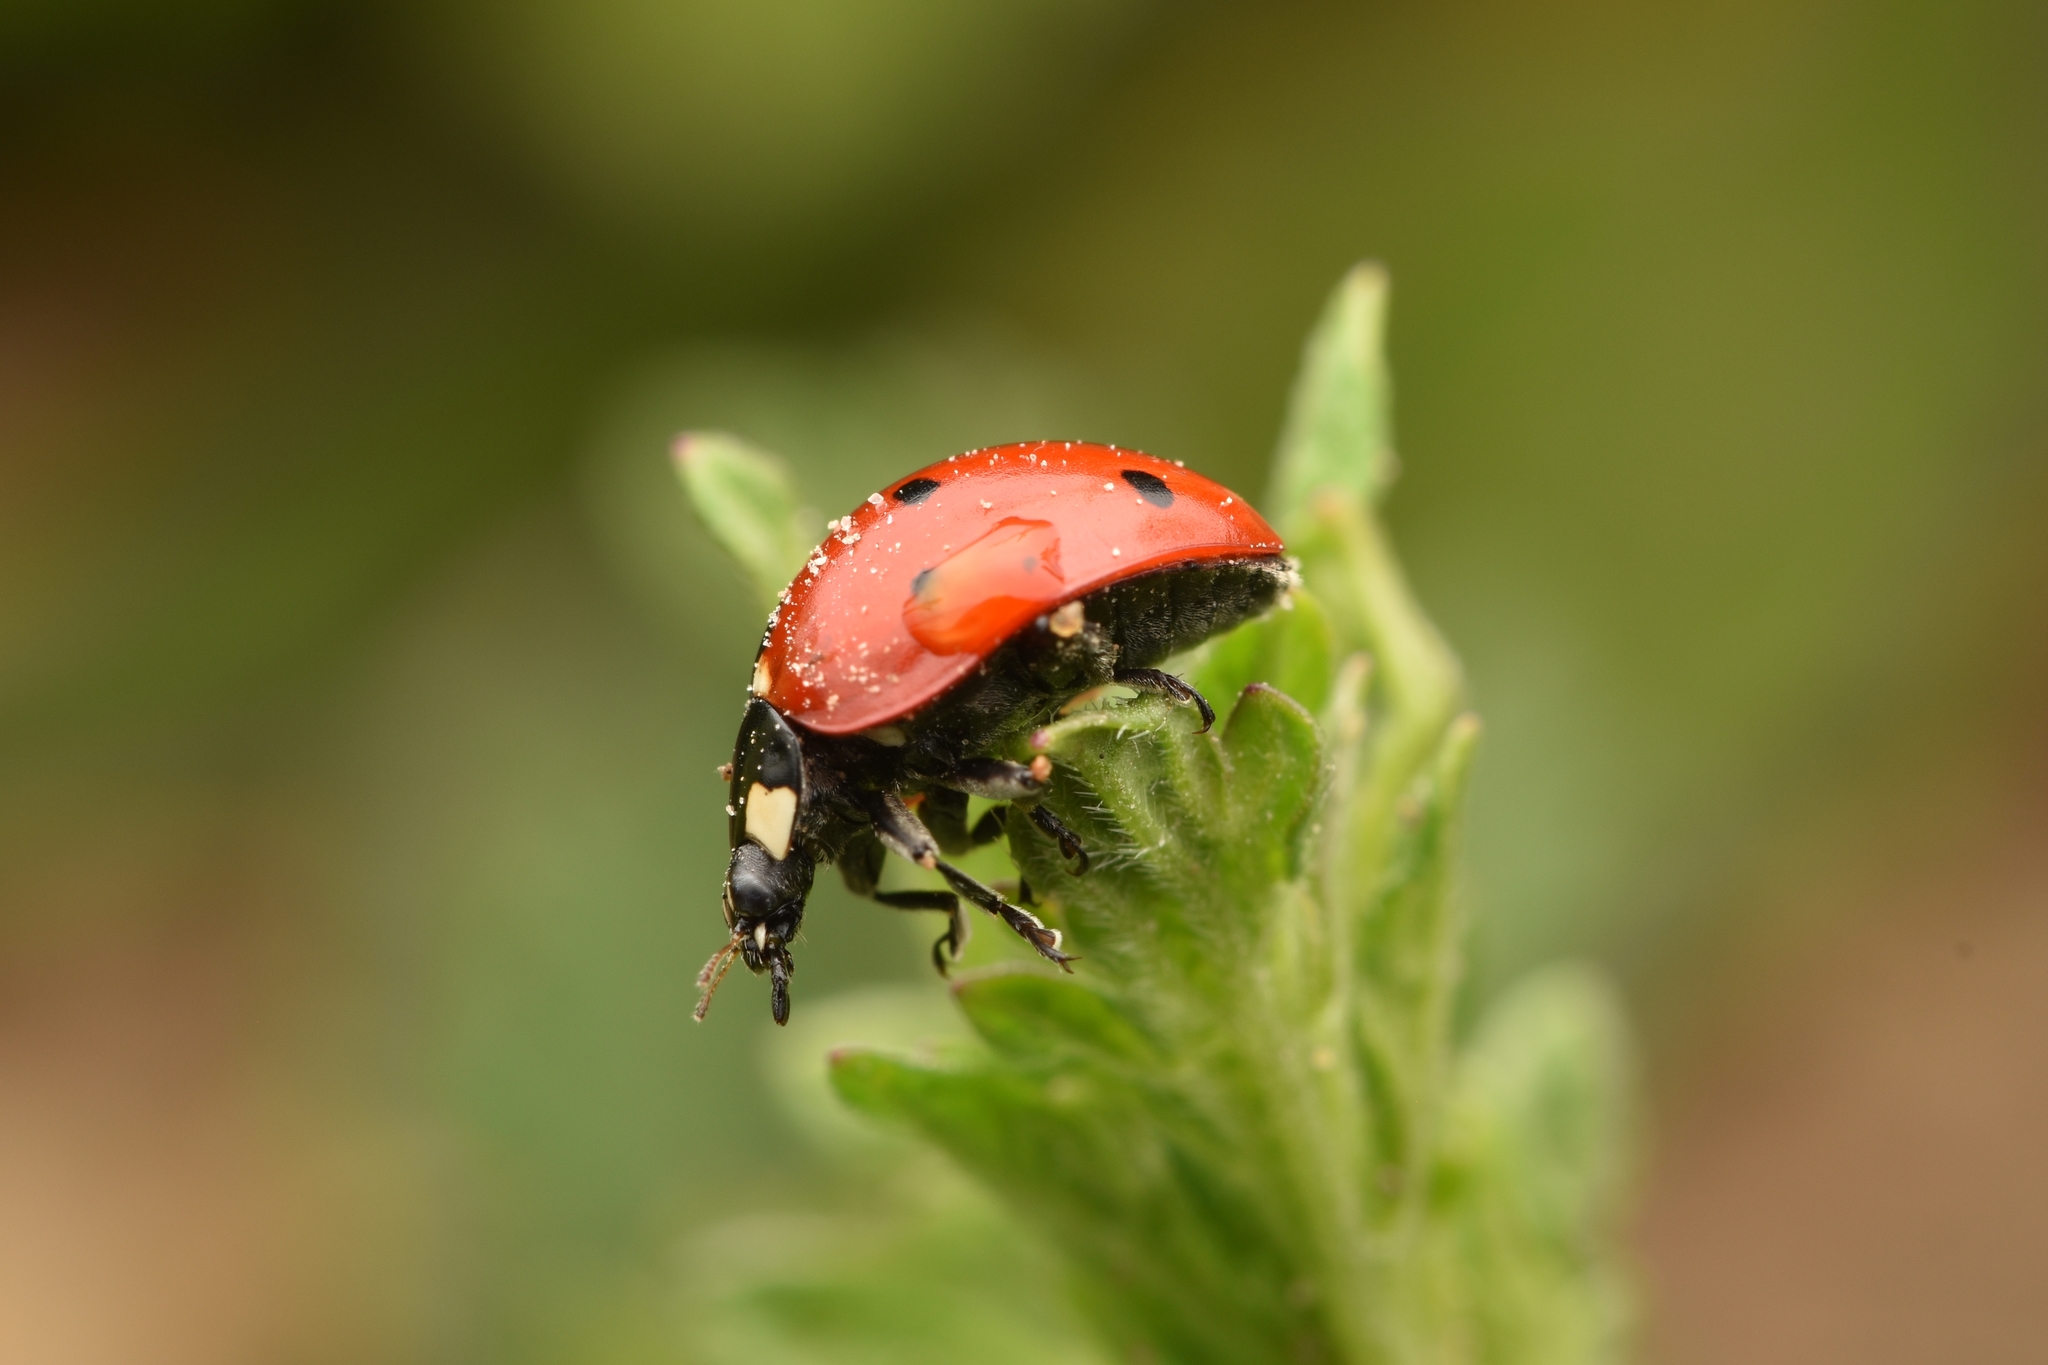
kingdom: Animalia
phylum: Arthropoda
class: Insecta
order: Coleoptera
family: Coccinellidae
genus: Coccinella
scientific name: Coccinella septempunctata
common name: Sevenspotted lady beetle
